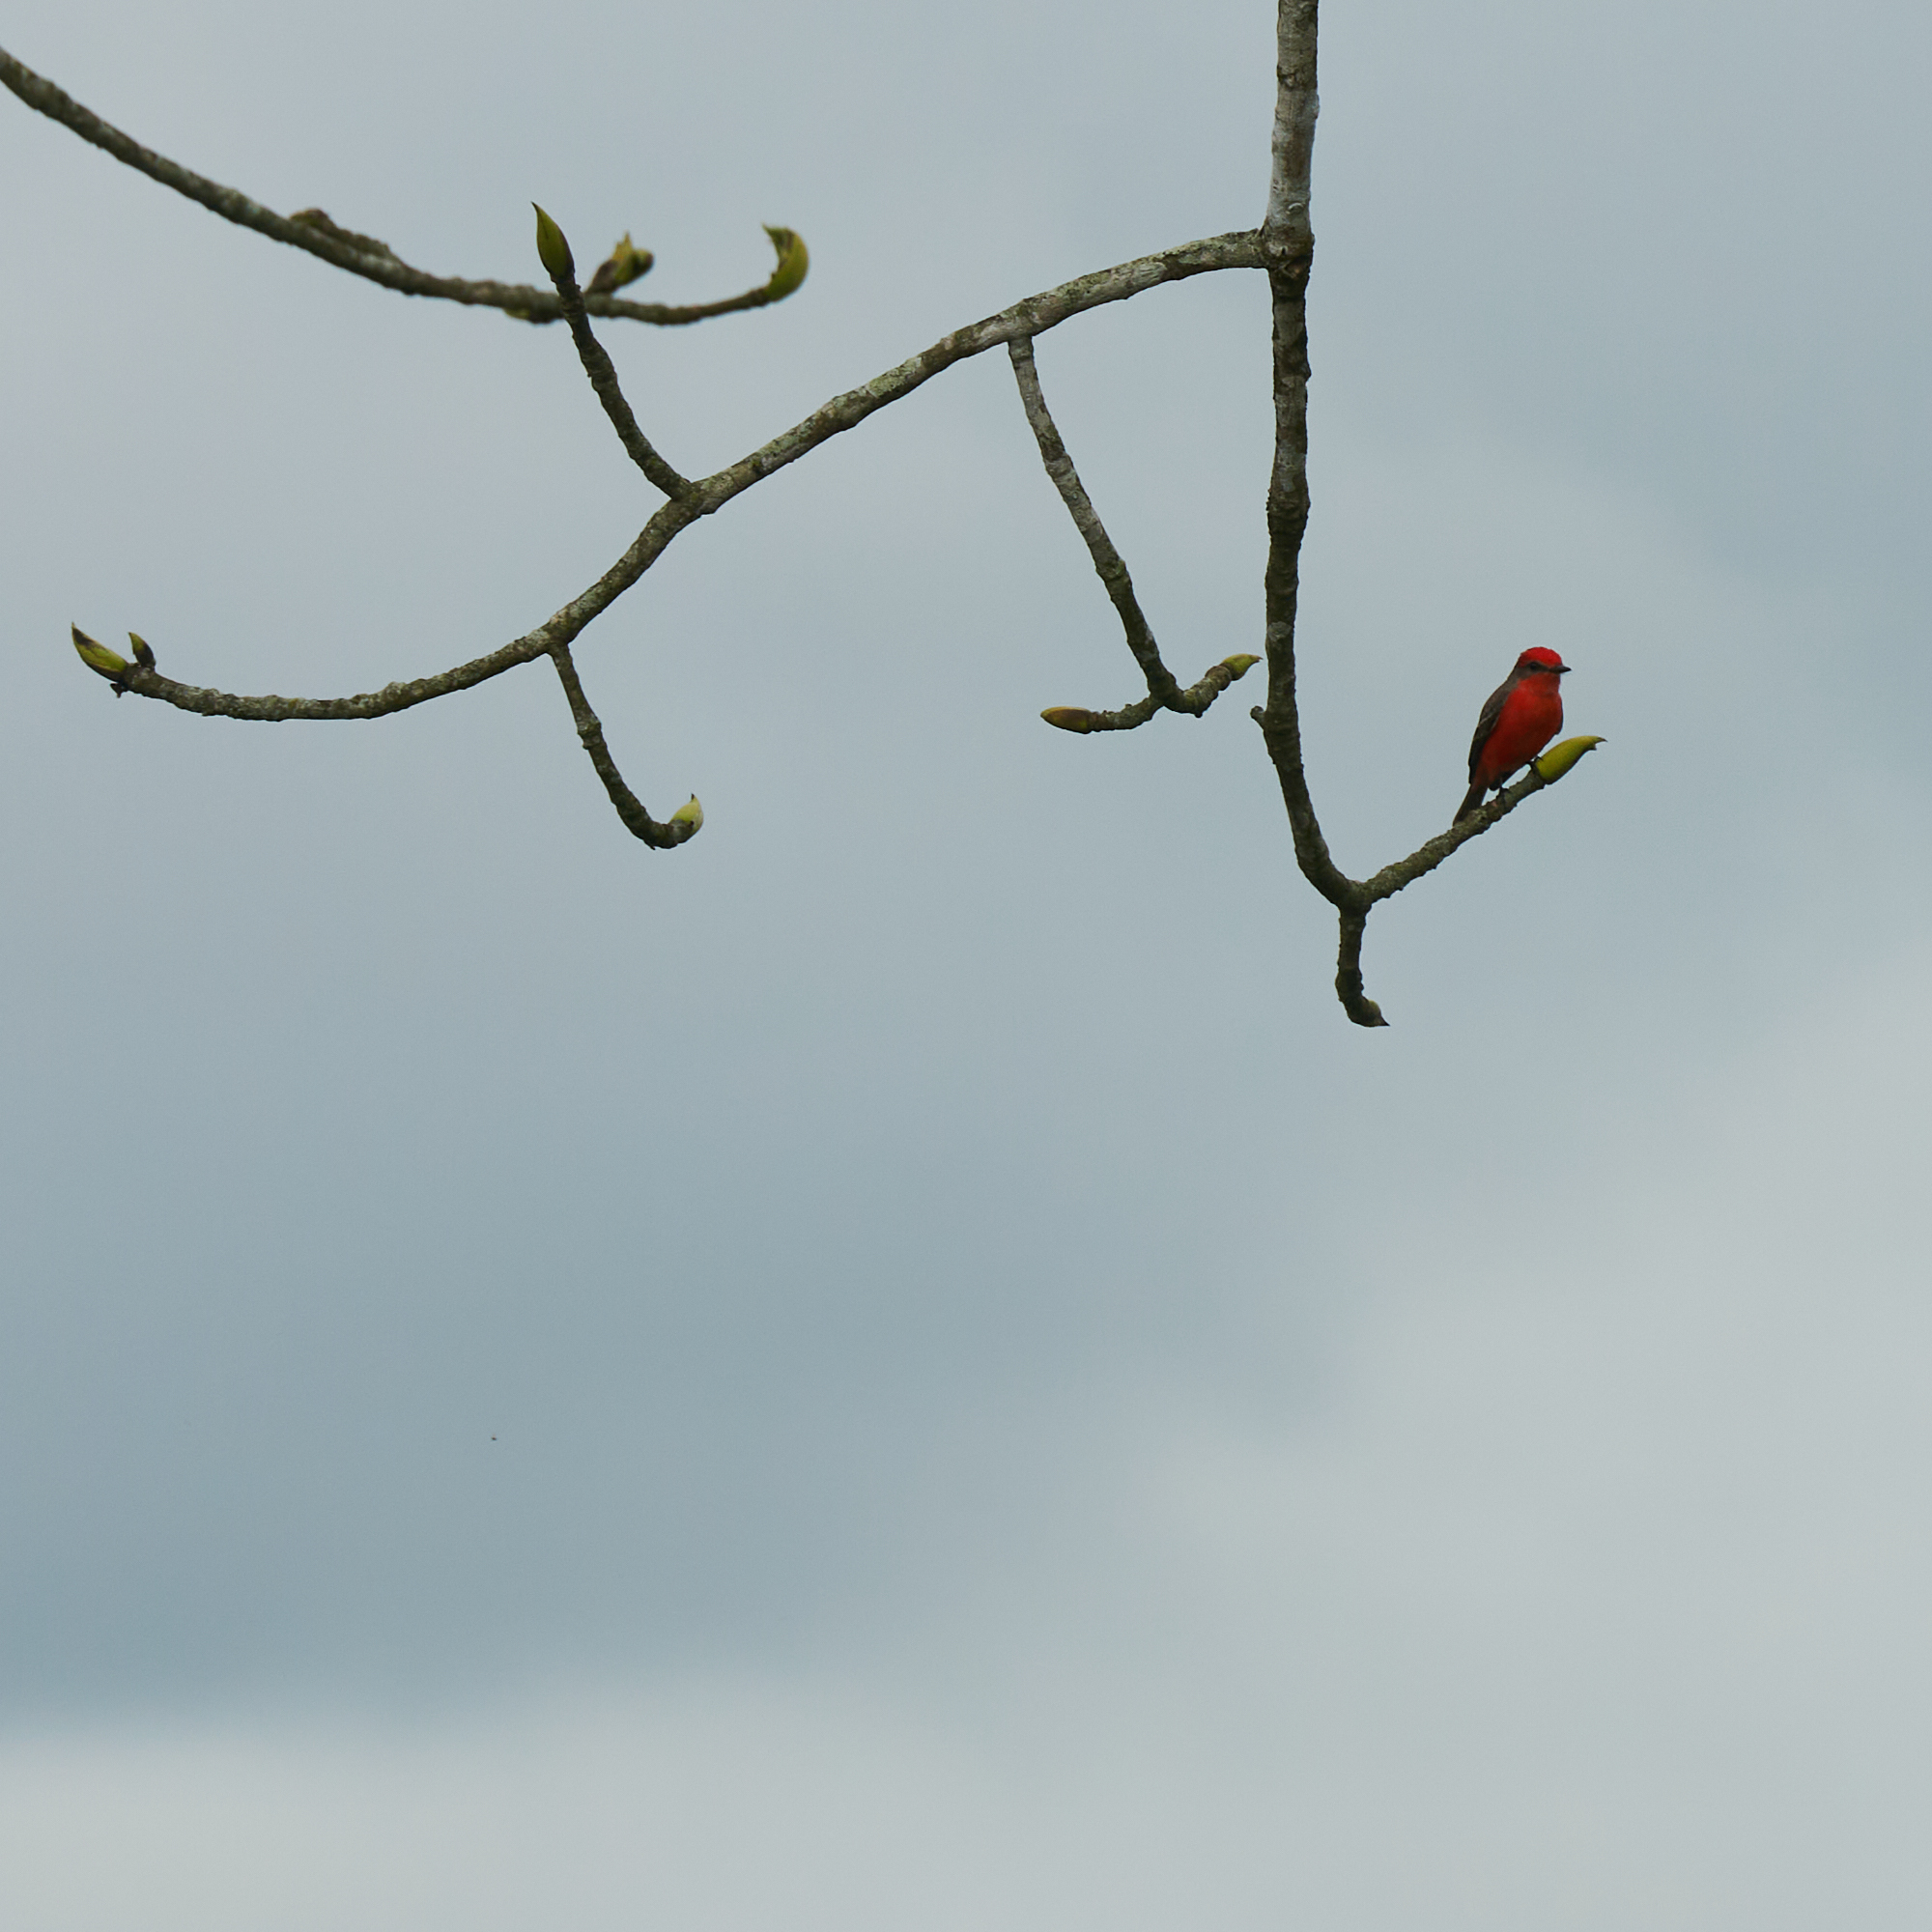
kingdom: Animalia
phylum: Chordata
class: Aves
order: Passeriformes
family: Tyrannidae
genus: Pyrocephalus
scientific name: Pyrocephalus rubinus
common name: Vermilion flycatcher
